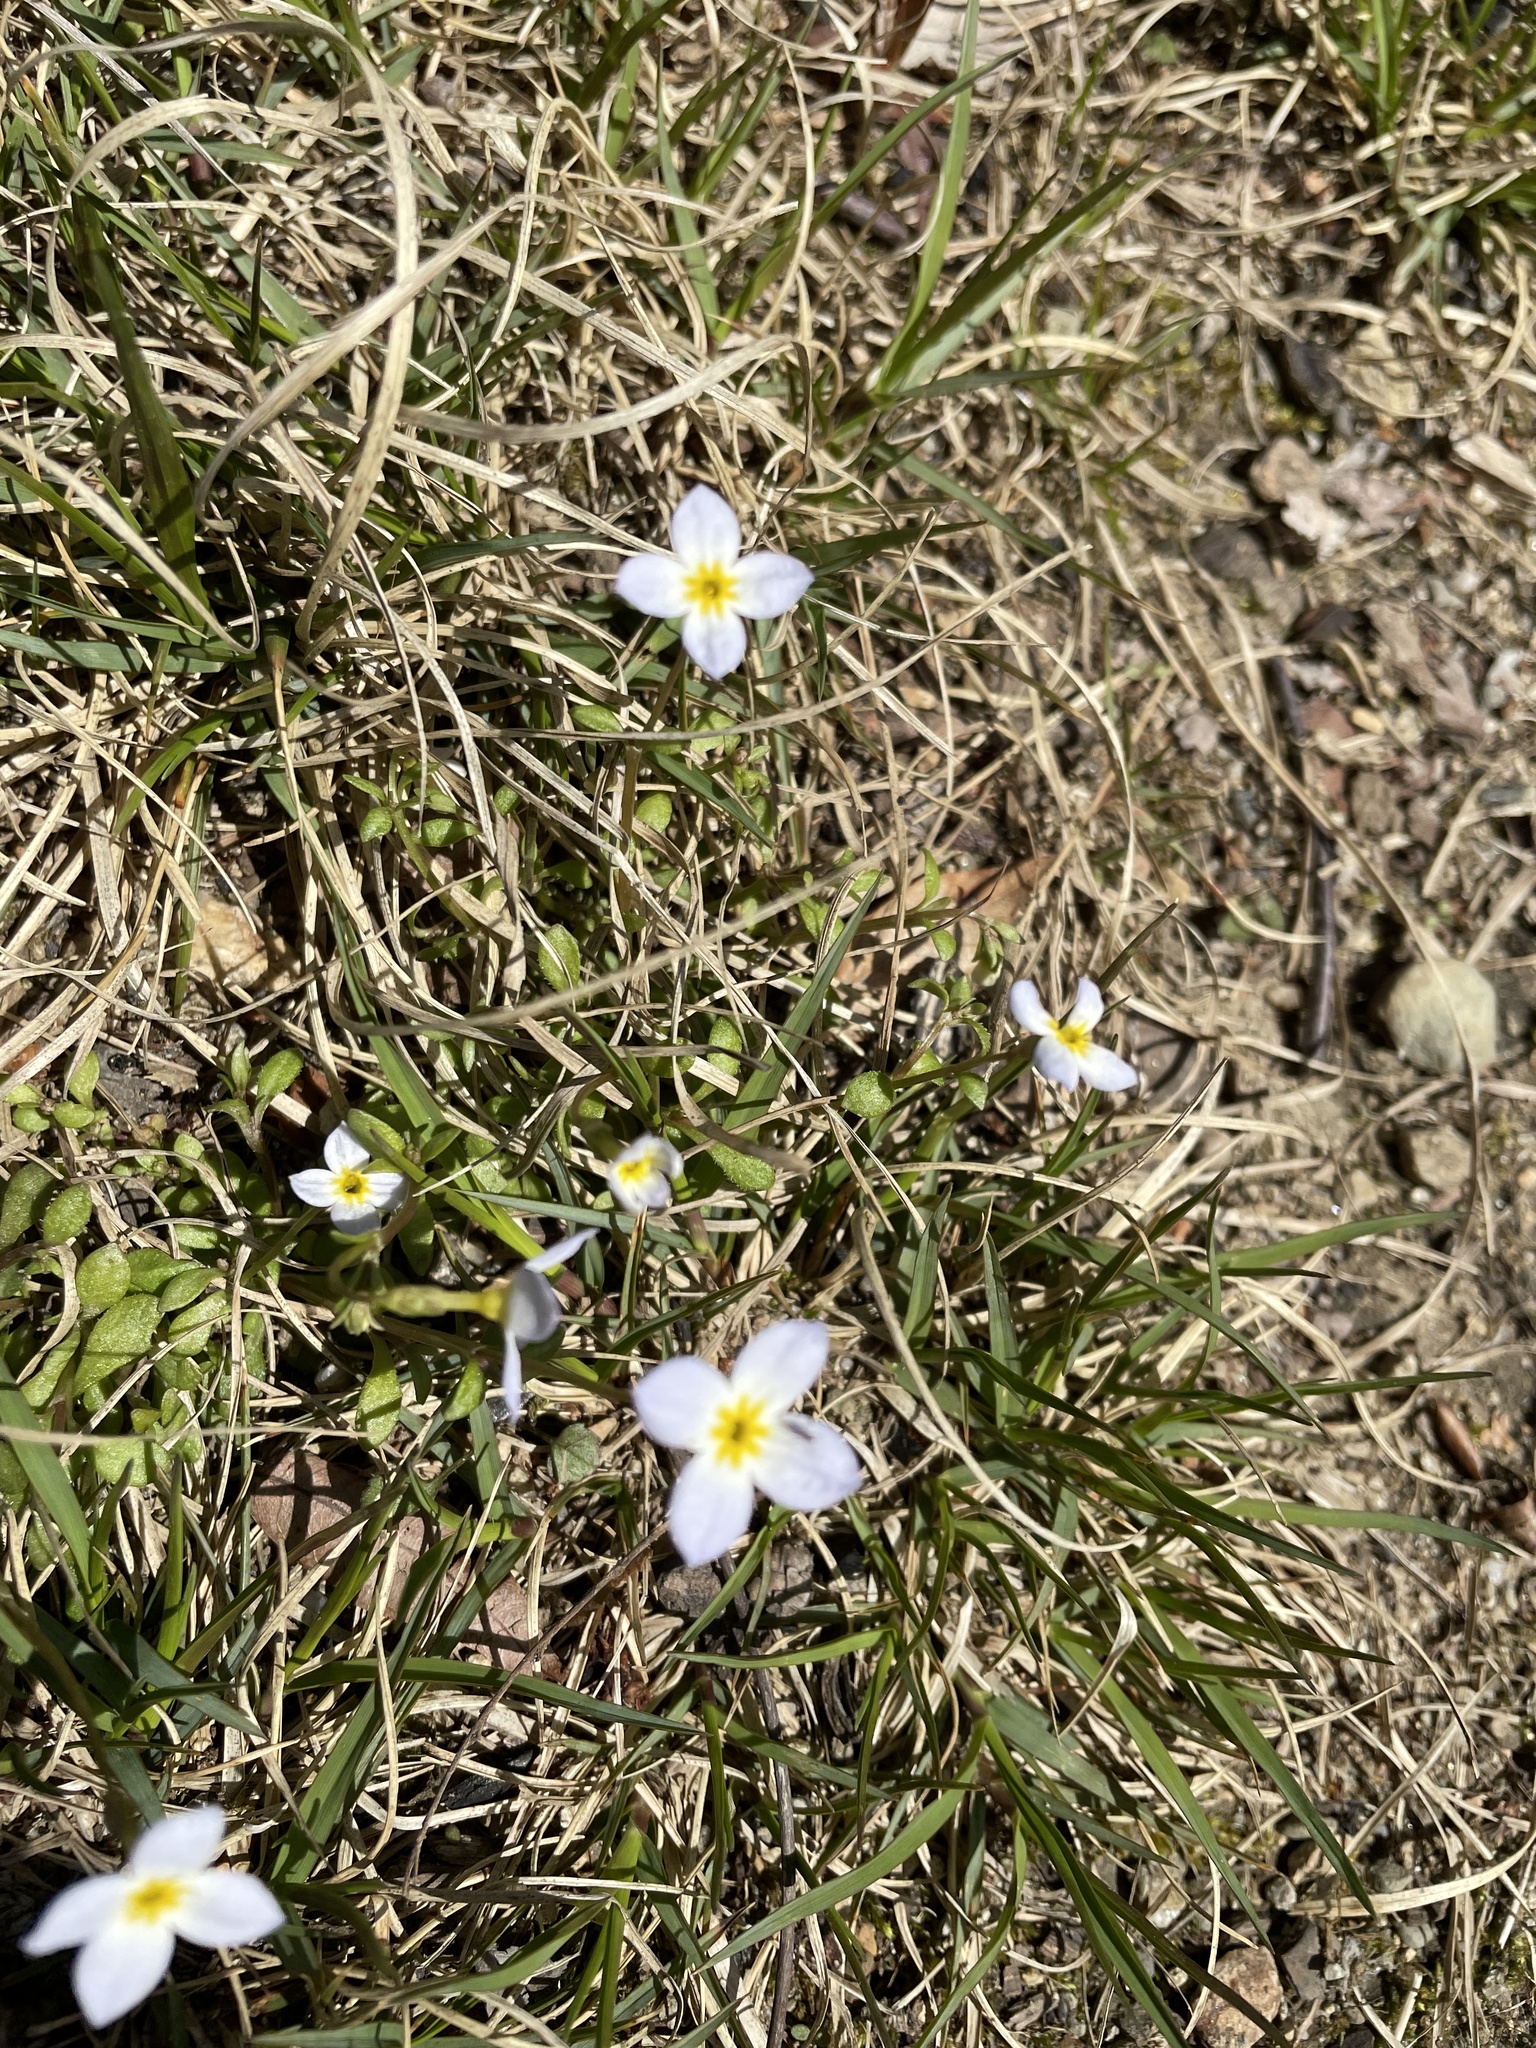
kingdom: Plantae
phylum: Tracheophyta
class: Magnoliopsida
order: Gentianales
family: Rubiaceae
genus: Houstonia
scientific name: Houstonia caerulea
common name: Bluets
